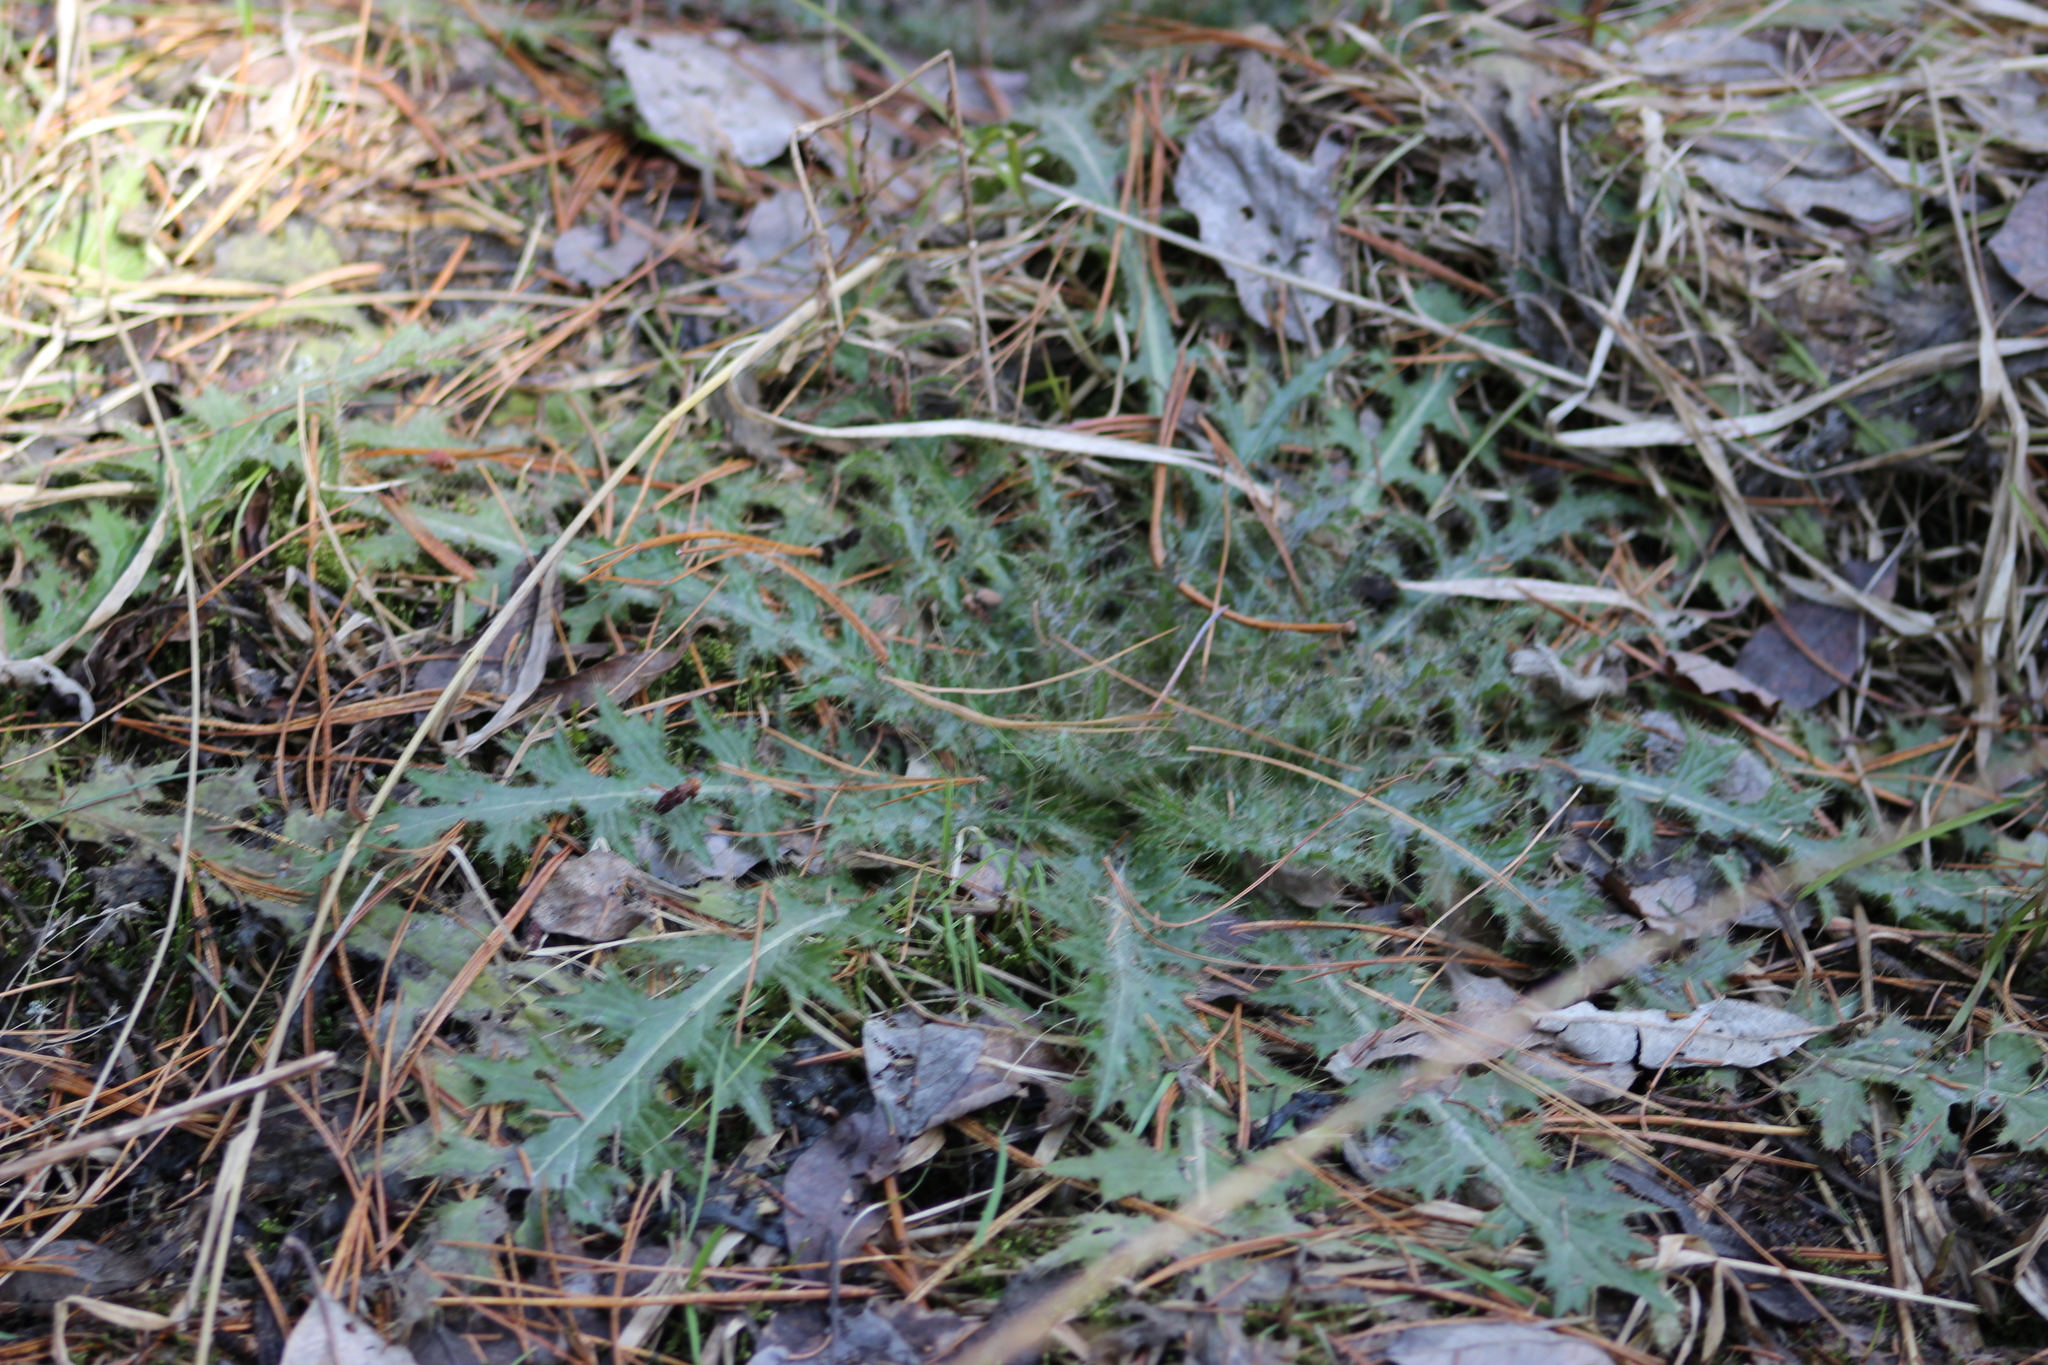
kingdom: Plantae
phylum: Tracheophyta
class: Magnoliopsida
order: Asterales
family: Asteraceae
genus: Cirsium
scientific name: Cirsium palustre
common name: Marsh thistle
